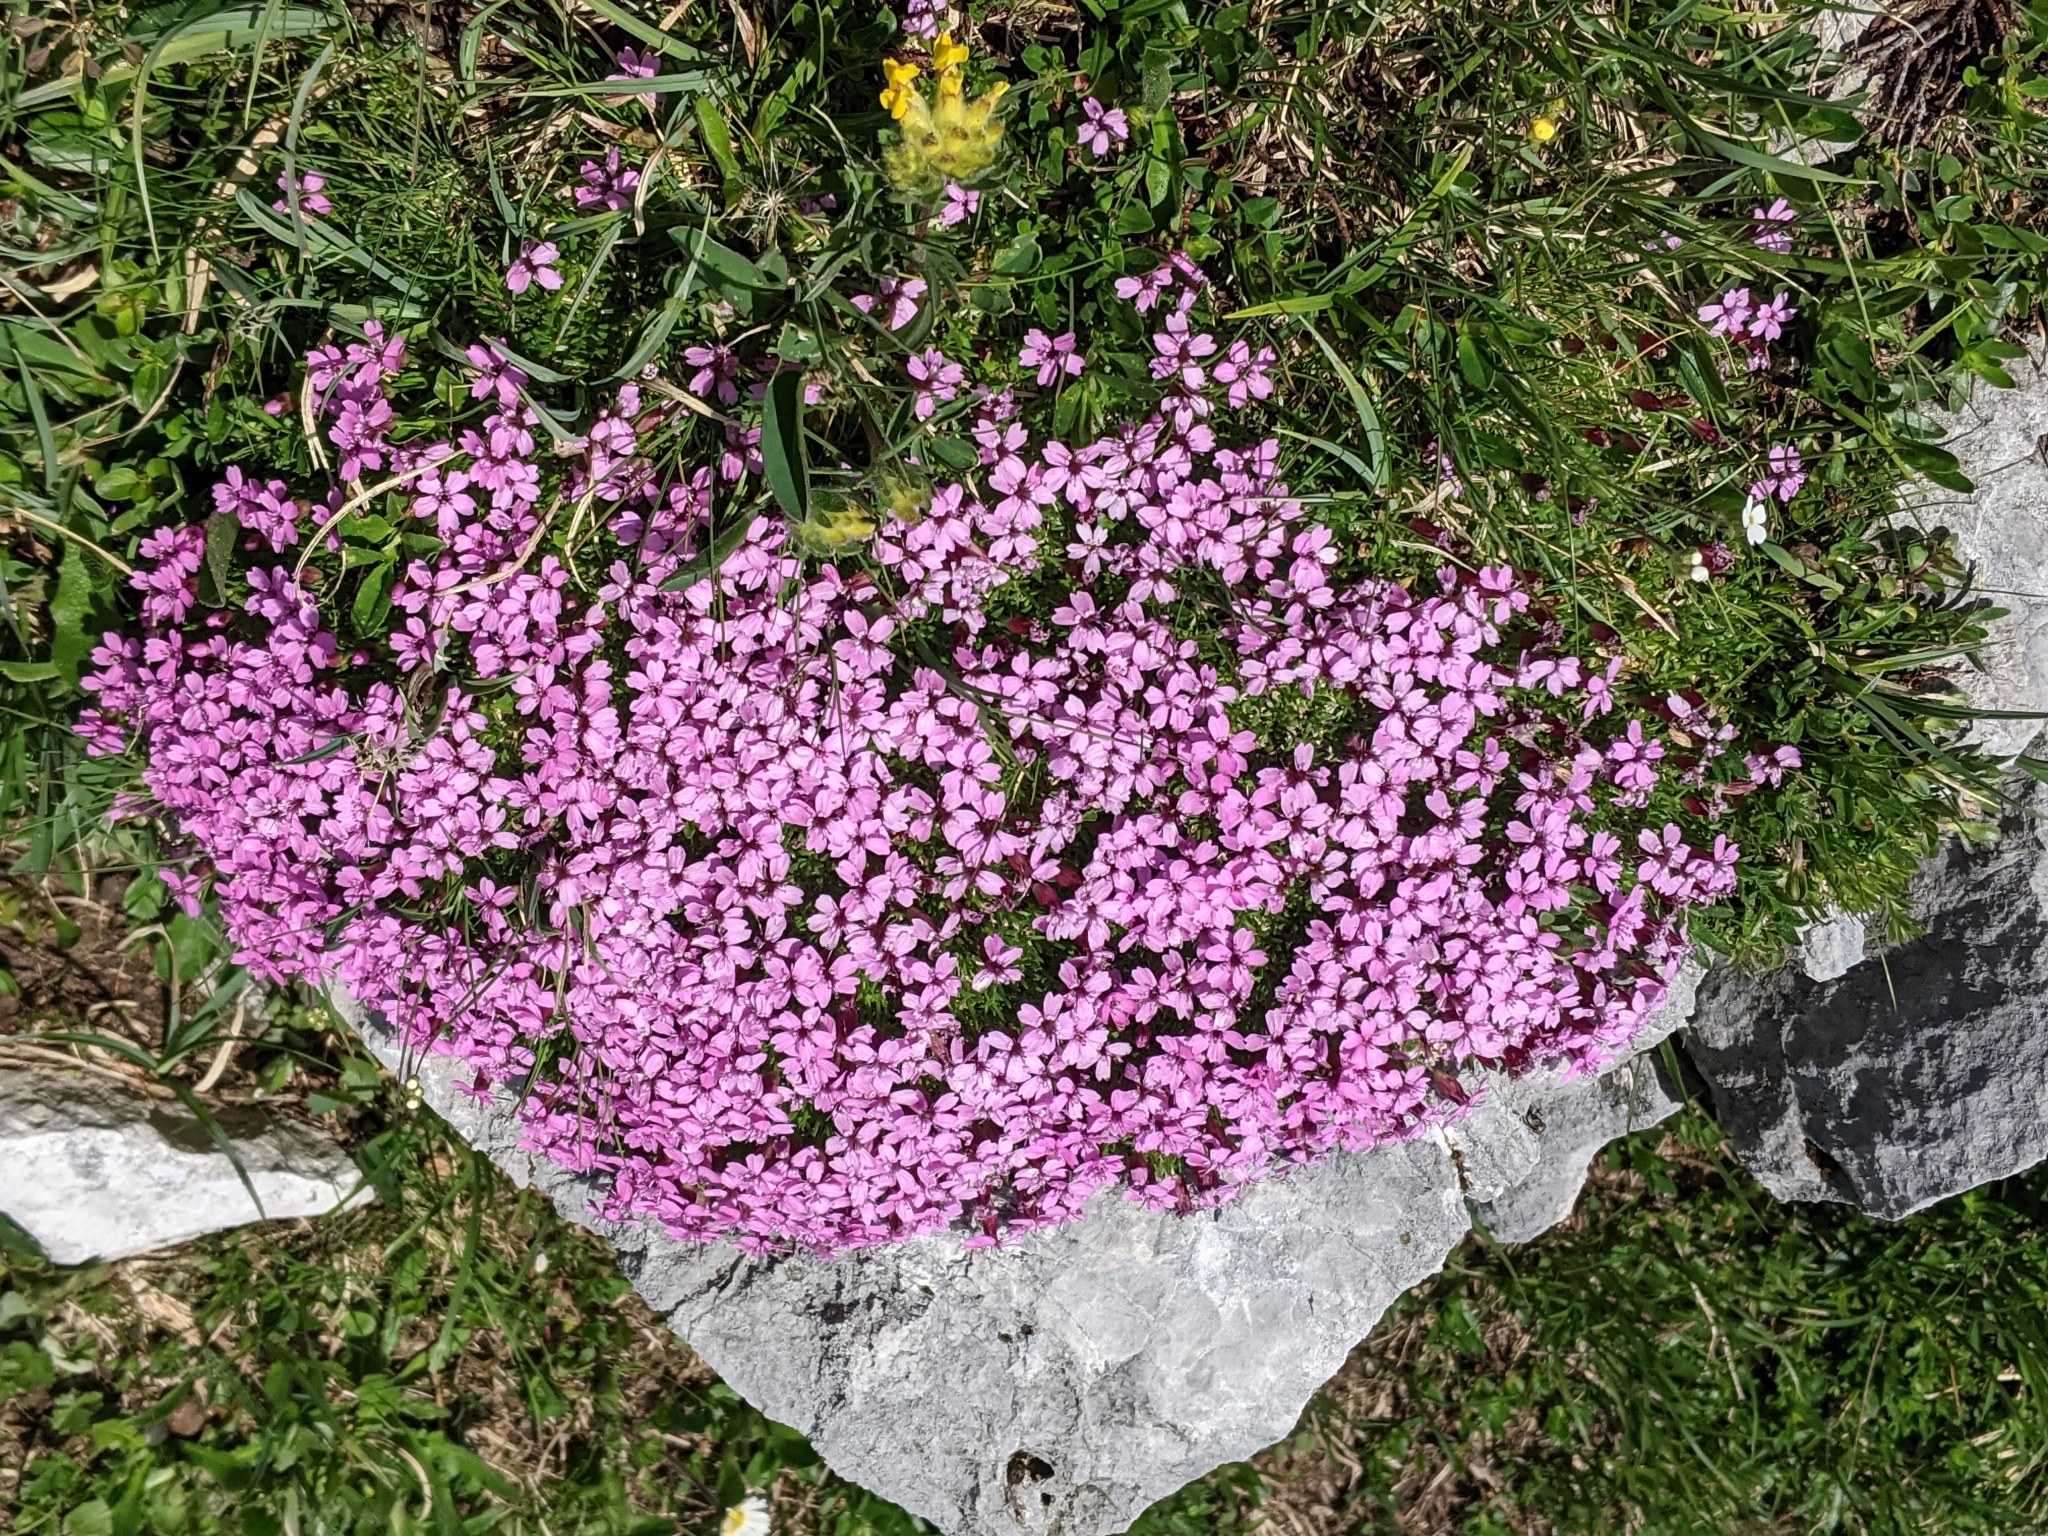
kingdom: Plantae
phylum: Tracheophyta
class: Magnoliopsida
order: Caryophyllales
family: Caryophyllaceae
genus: Silene
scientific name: Silene acaulis
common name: Moss campion
